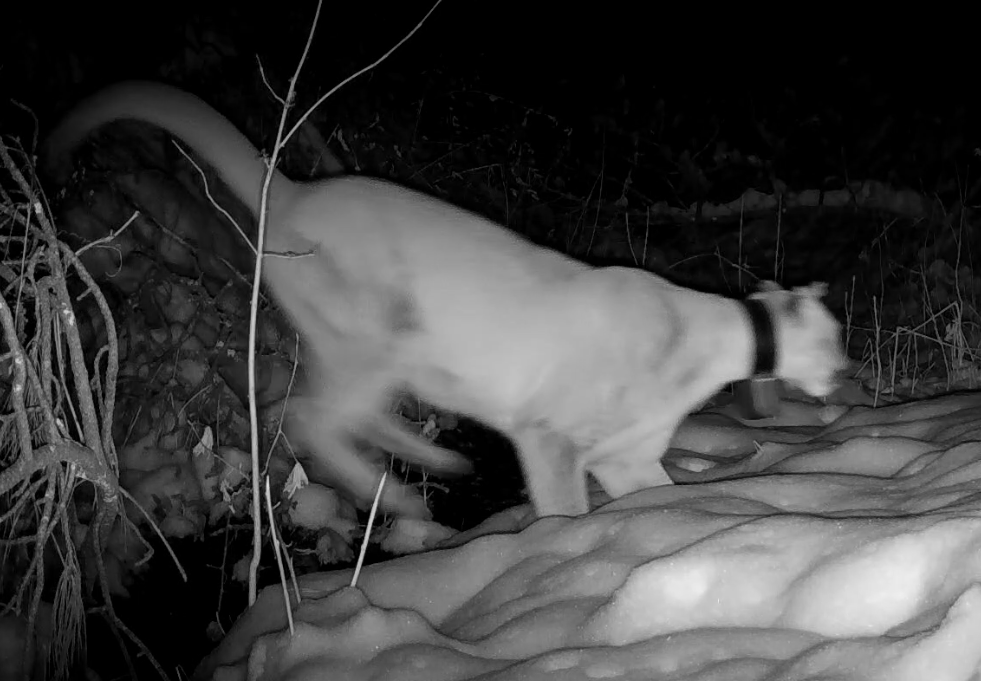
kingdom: Animalia
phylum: Chordata
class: Mammalia
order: Carnivora
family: Felidae
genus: Puma
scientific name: Puma concolor
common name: Puma
